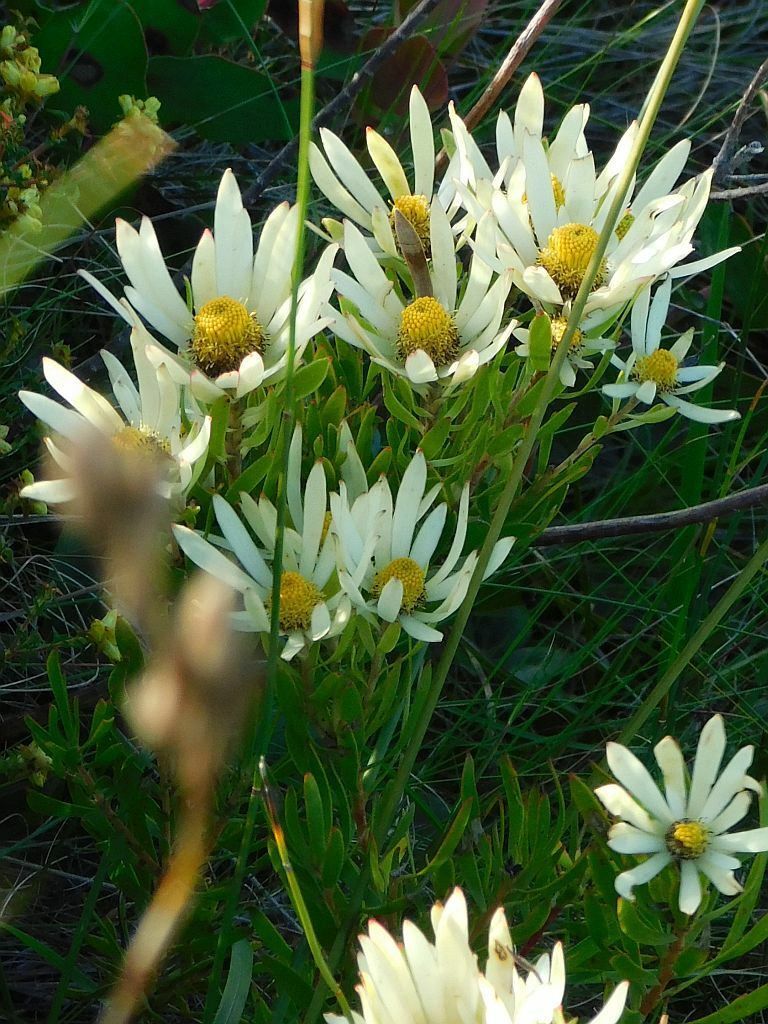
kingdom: Plantae
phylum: Tracheophyta
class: Magnoliopsida
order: Proteales
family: Proteaceae
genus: Leucadendron
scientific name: Leucadendron spissifolium
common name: Spear-leaf conebush
